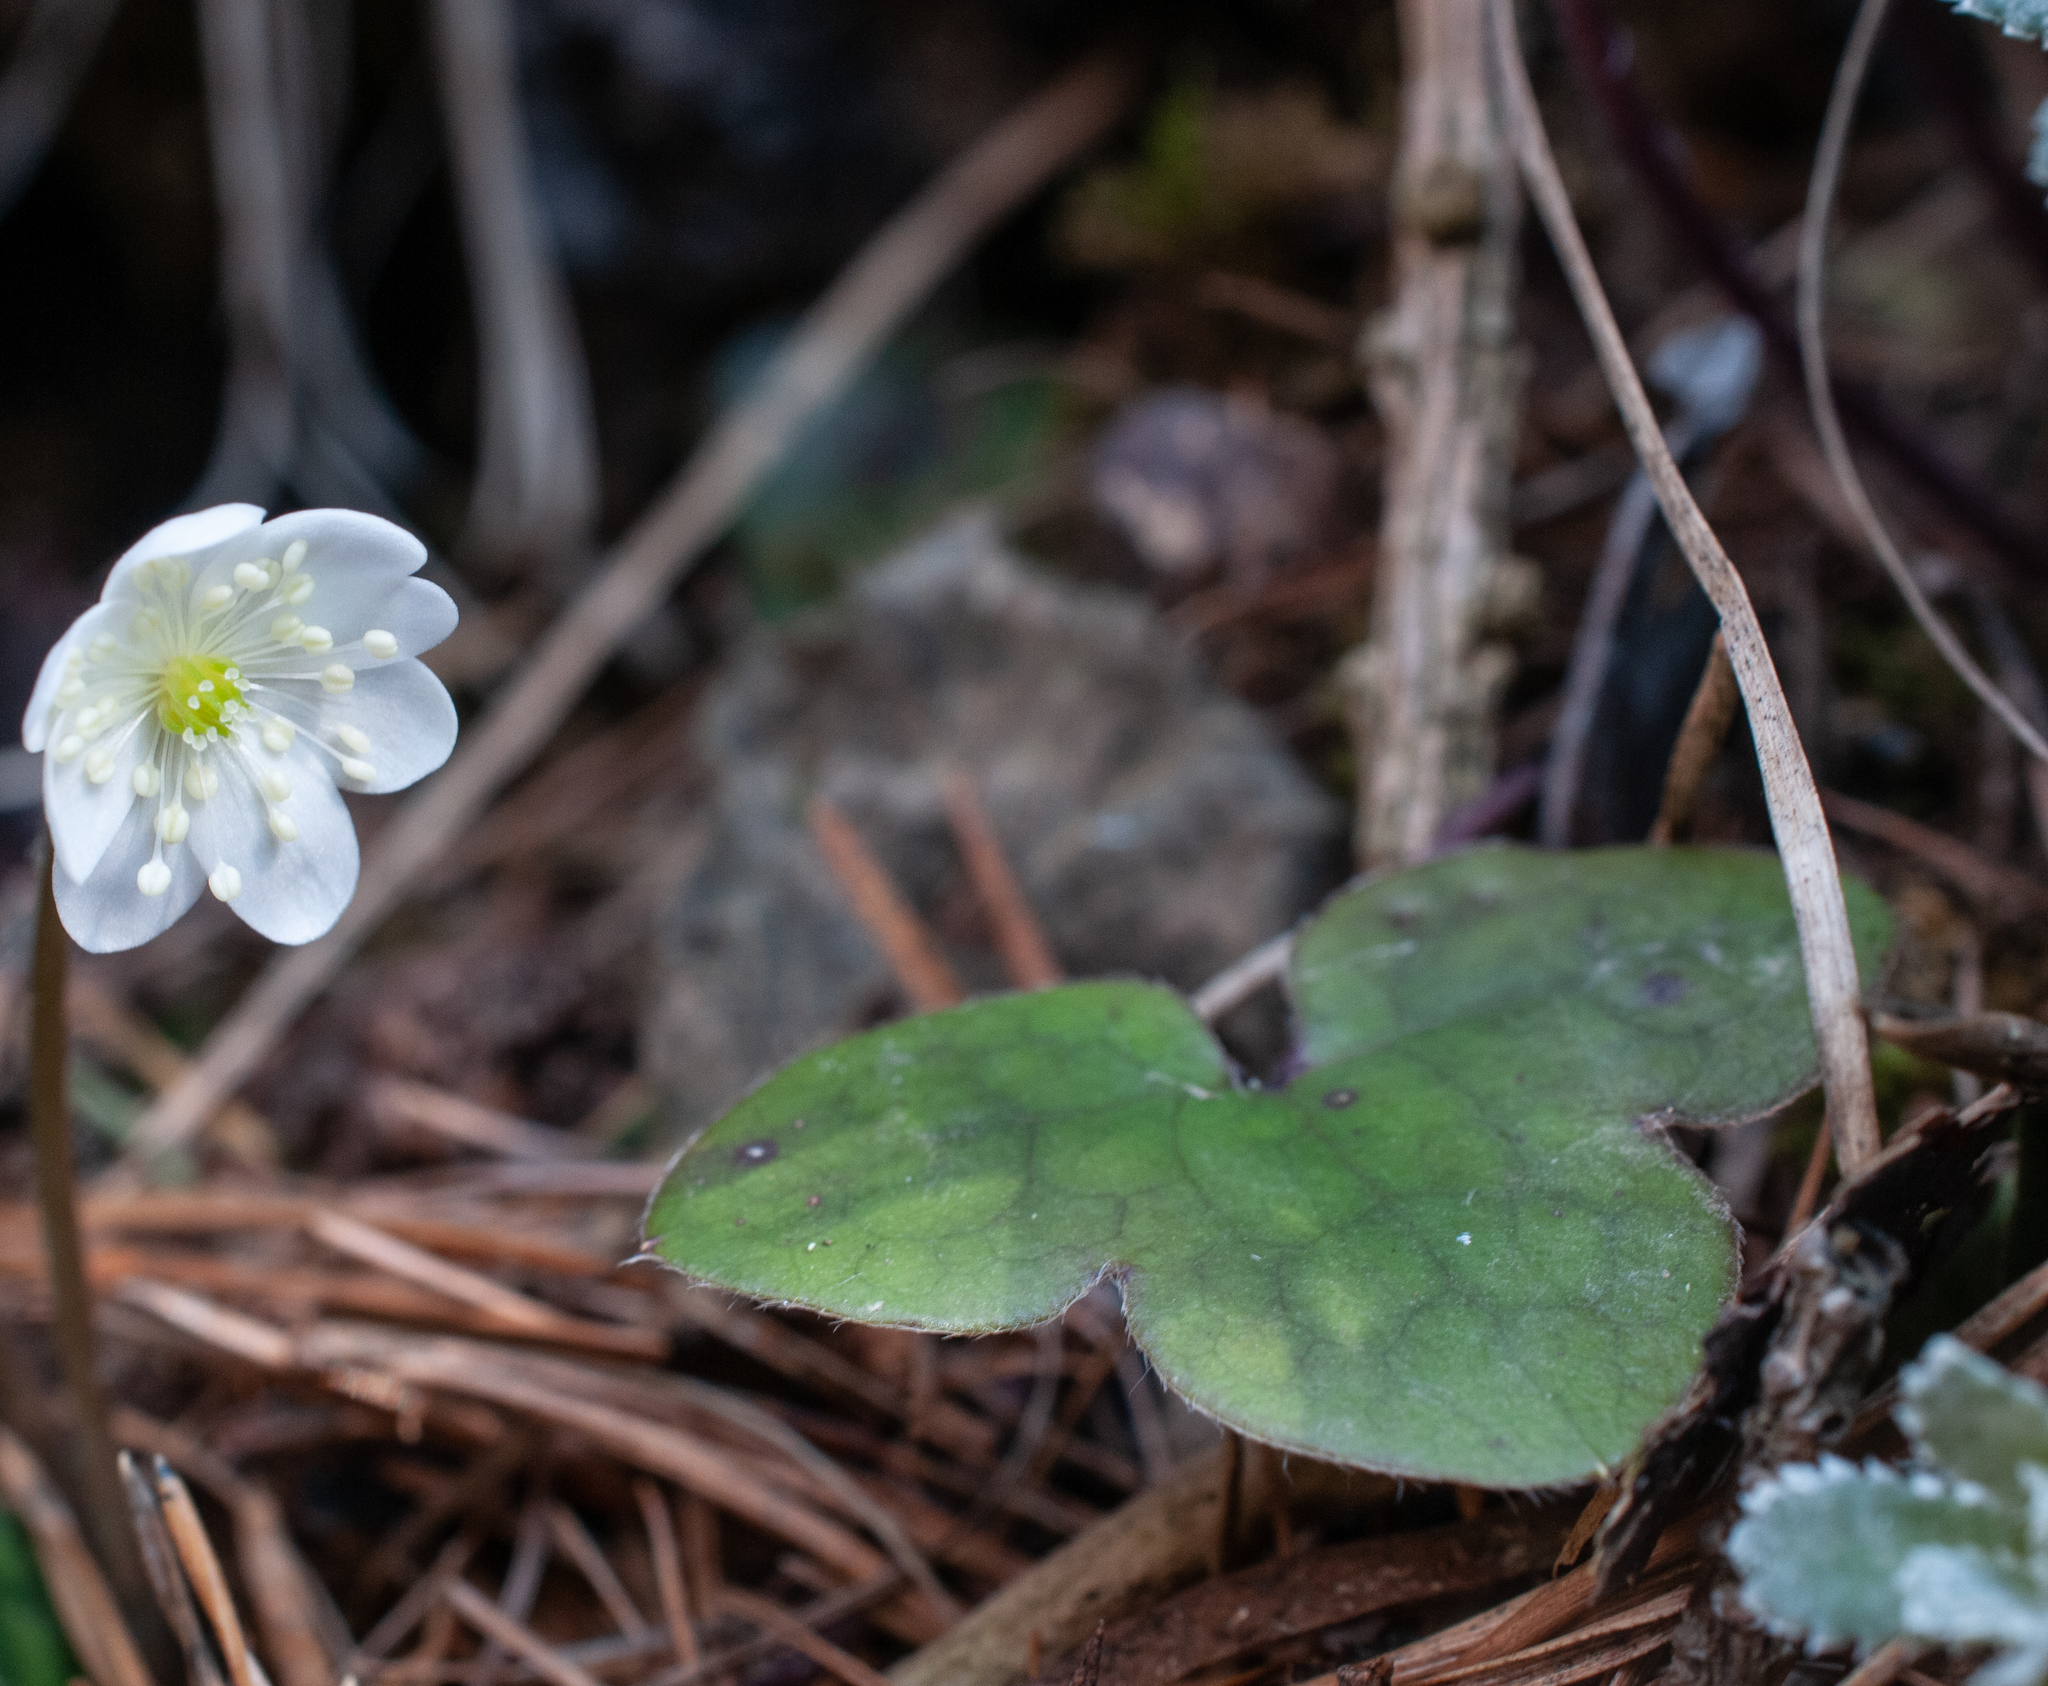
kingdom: Plantae
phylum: Tracheophyta
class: Magnoliopsida
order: Ranunculales
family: Ranunculaceae
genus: Hepatica
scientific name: Hepatica nobilis
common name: Liverleaf
